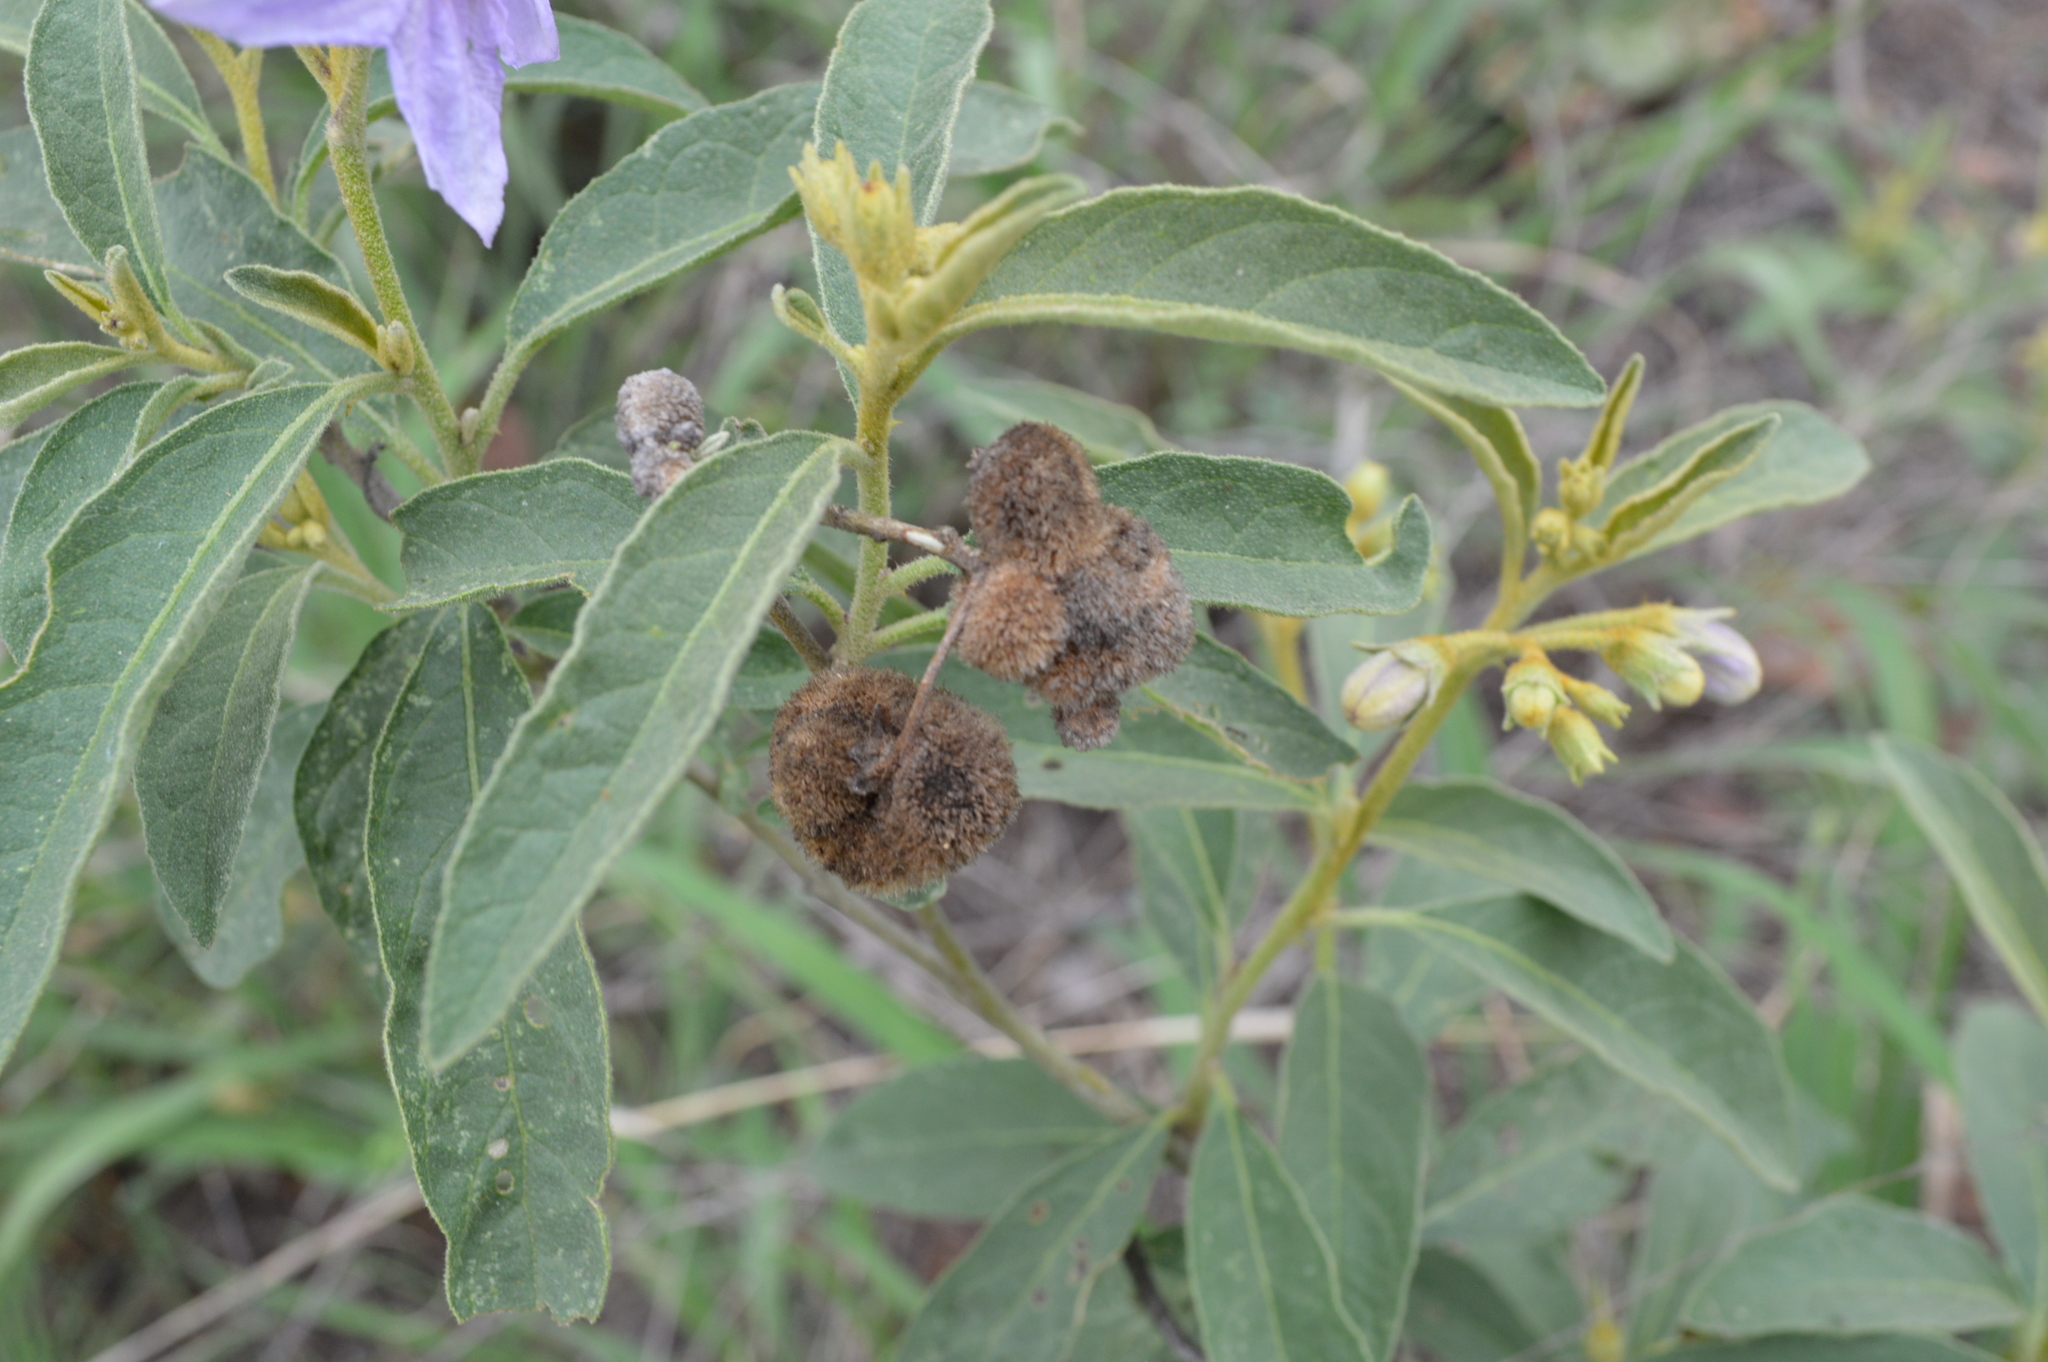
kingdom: Plantae
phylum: Tracheophyta
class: Magnoliopsida
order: Solanales
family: Solanaceae
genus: Solanum
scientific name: Solanum campylacanthum
